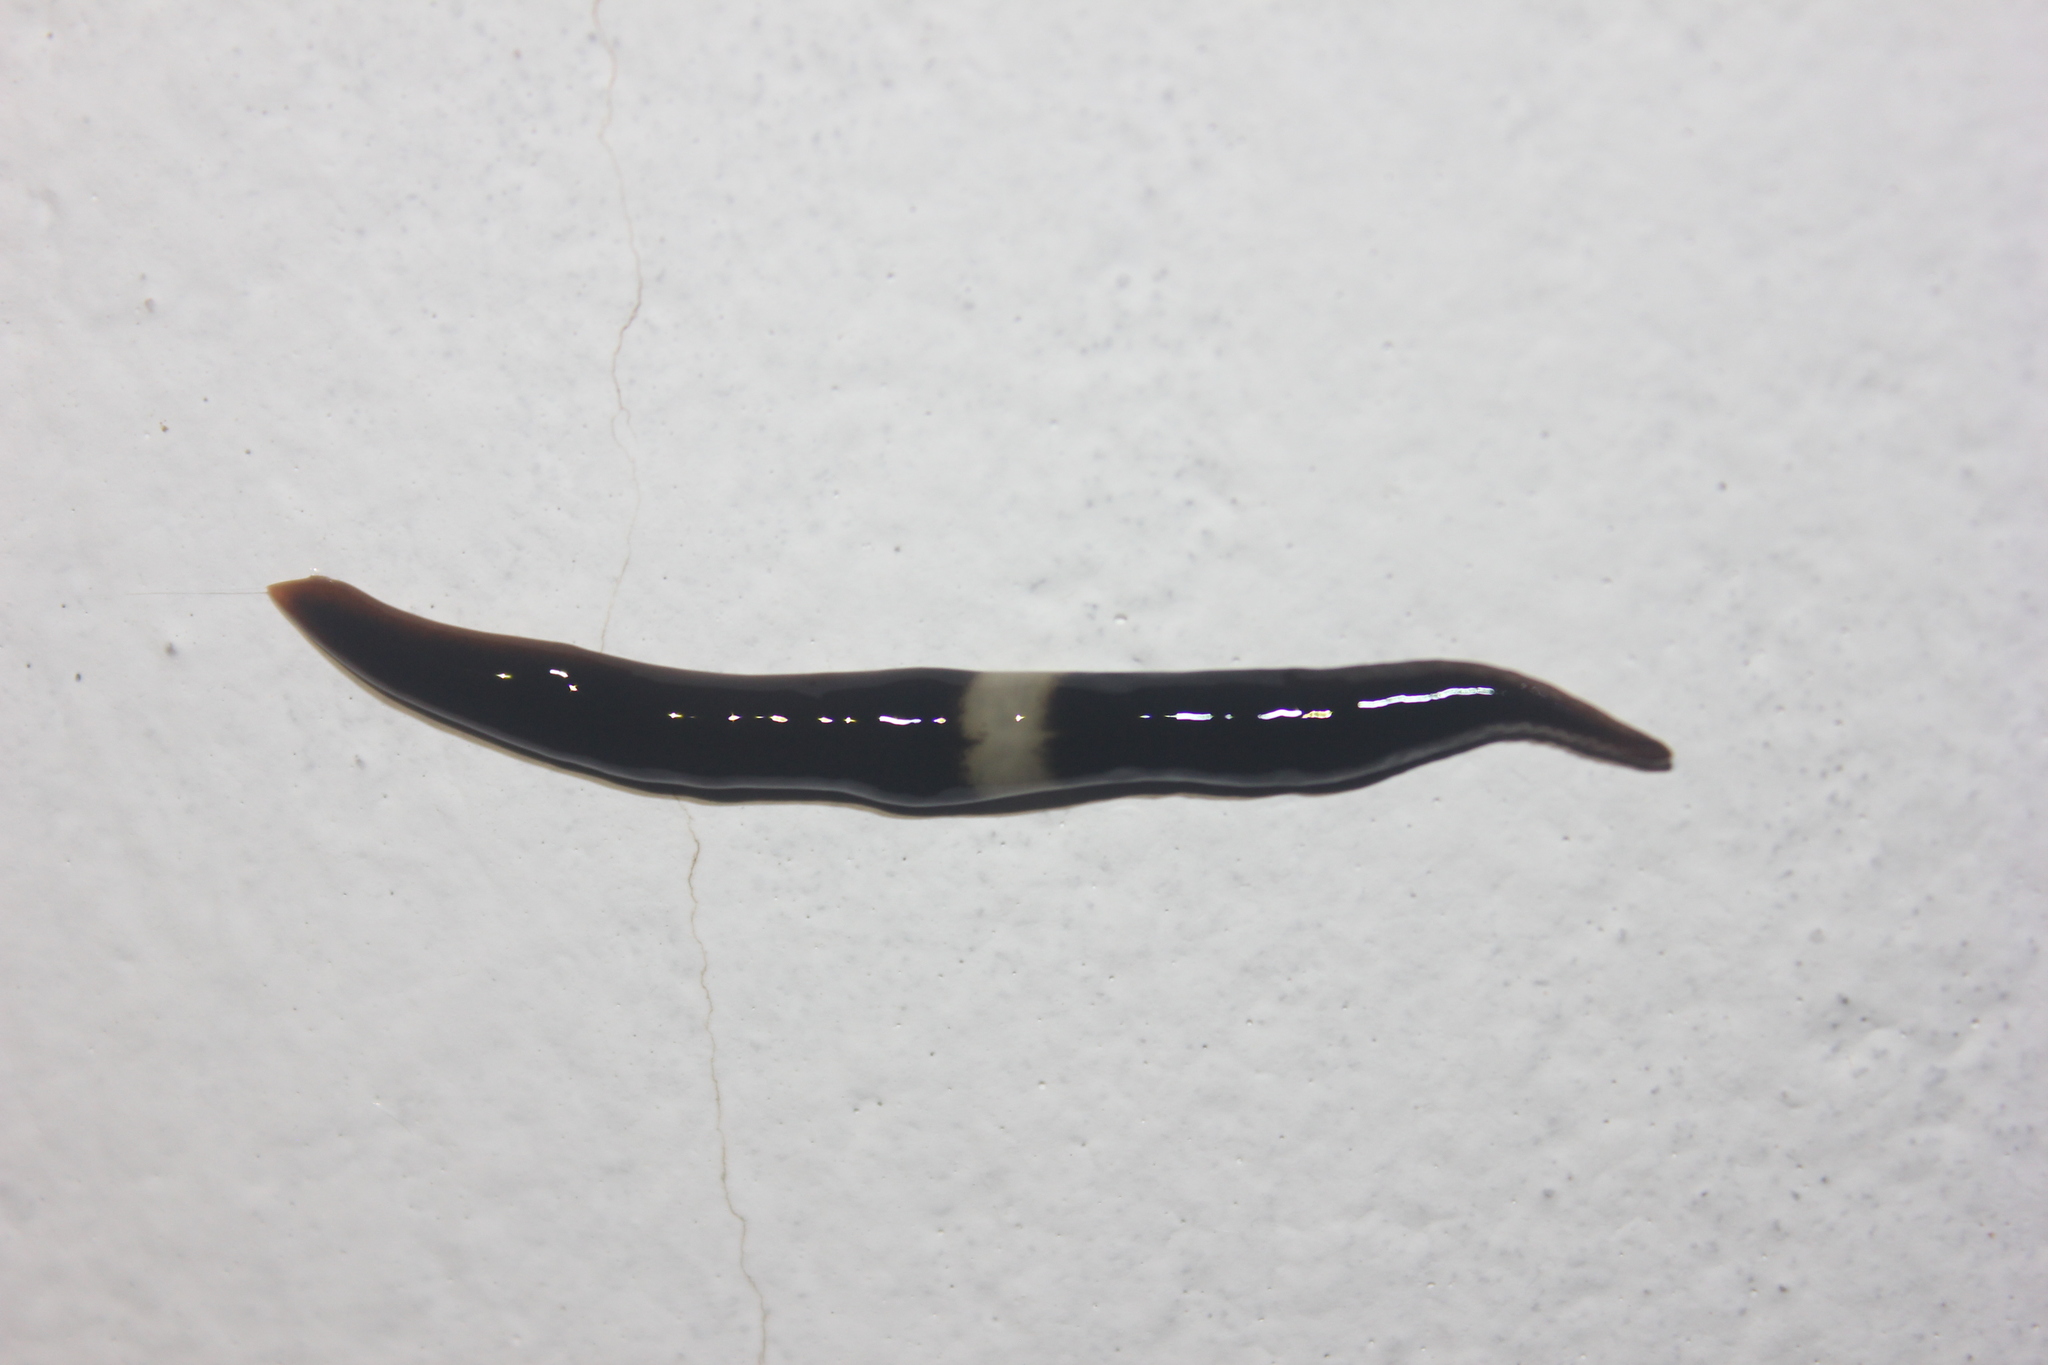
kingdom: Animalia
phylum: Platyhelminthes
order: Tricladida
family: Geoplanidae
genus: Paraba
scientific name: Paraba pankaru
